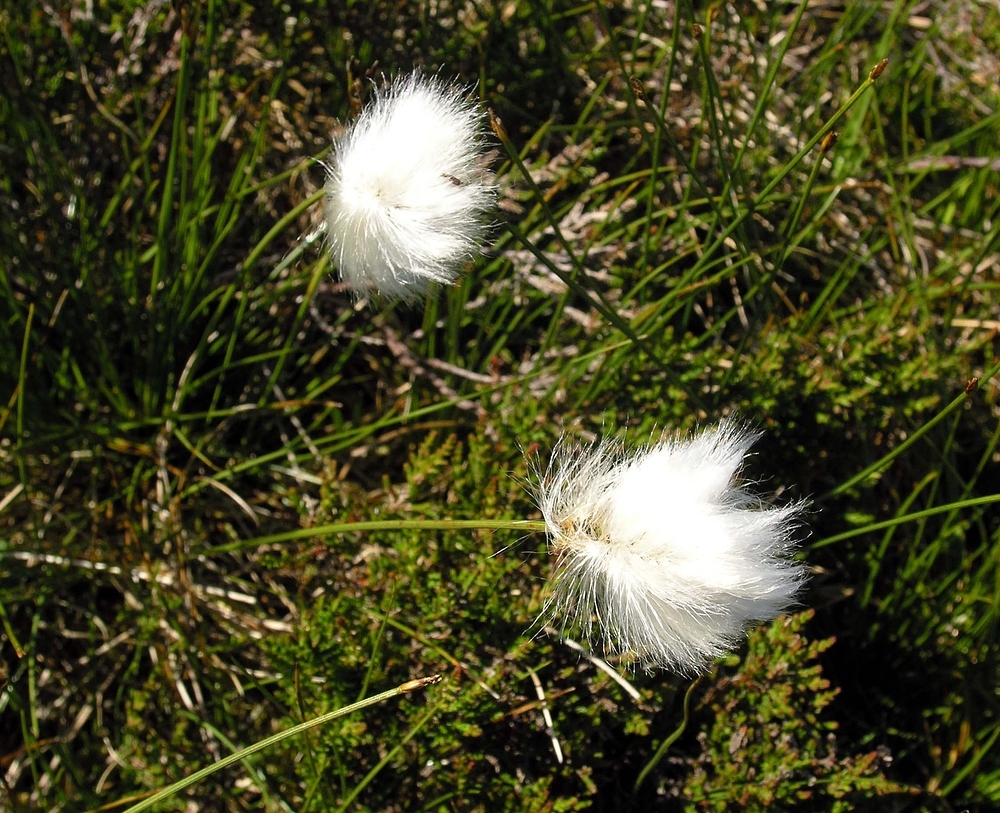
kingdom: Plantae
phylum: Tracheophyta
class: Liliopsida
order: Poales
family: Cyperaceae
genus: Eriophorum
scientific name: Eriophorum vaginatum
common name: Hare's-tail cottongrass
